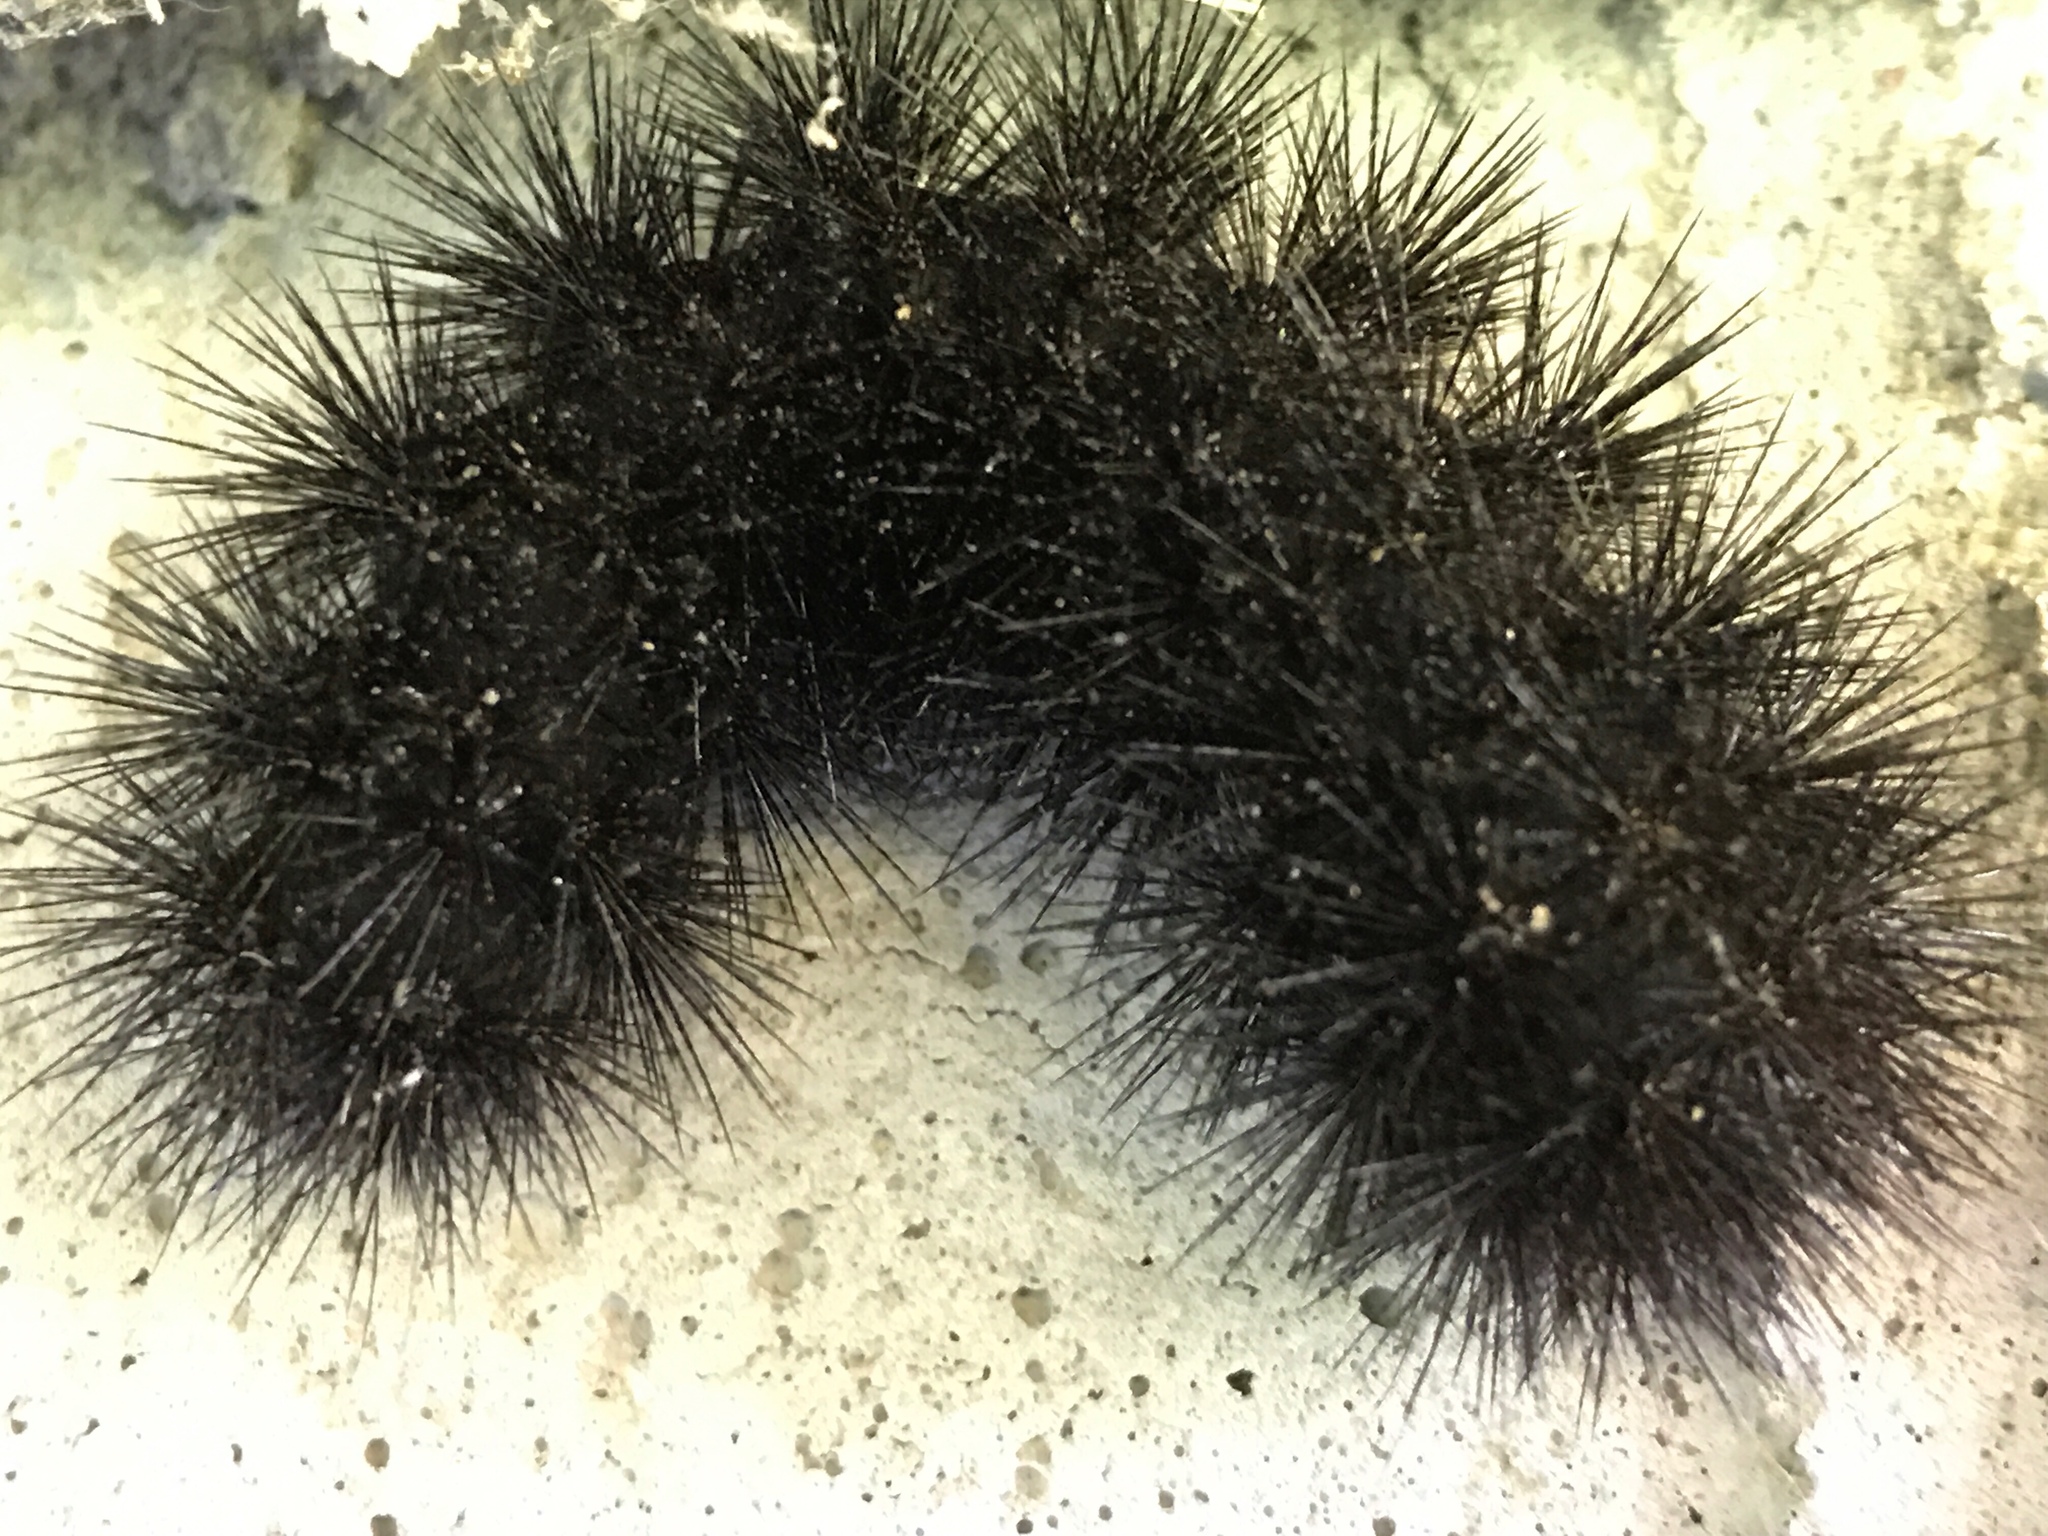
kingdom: Animalia
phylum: Arthropoda
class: Insecta
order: Lepidoptera
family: Erebidae
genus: Hypercompe
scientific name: Hypercompe scribonia
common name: Giant leopard moth
